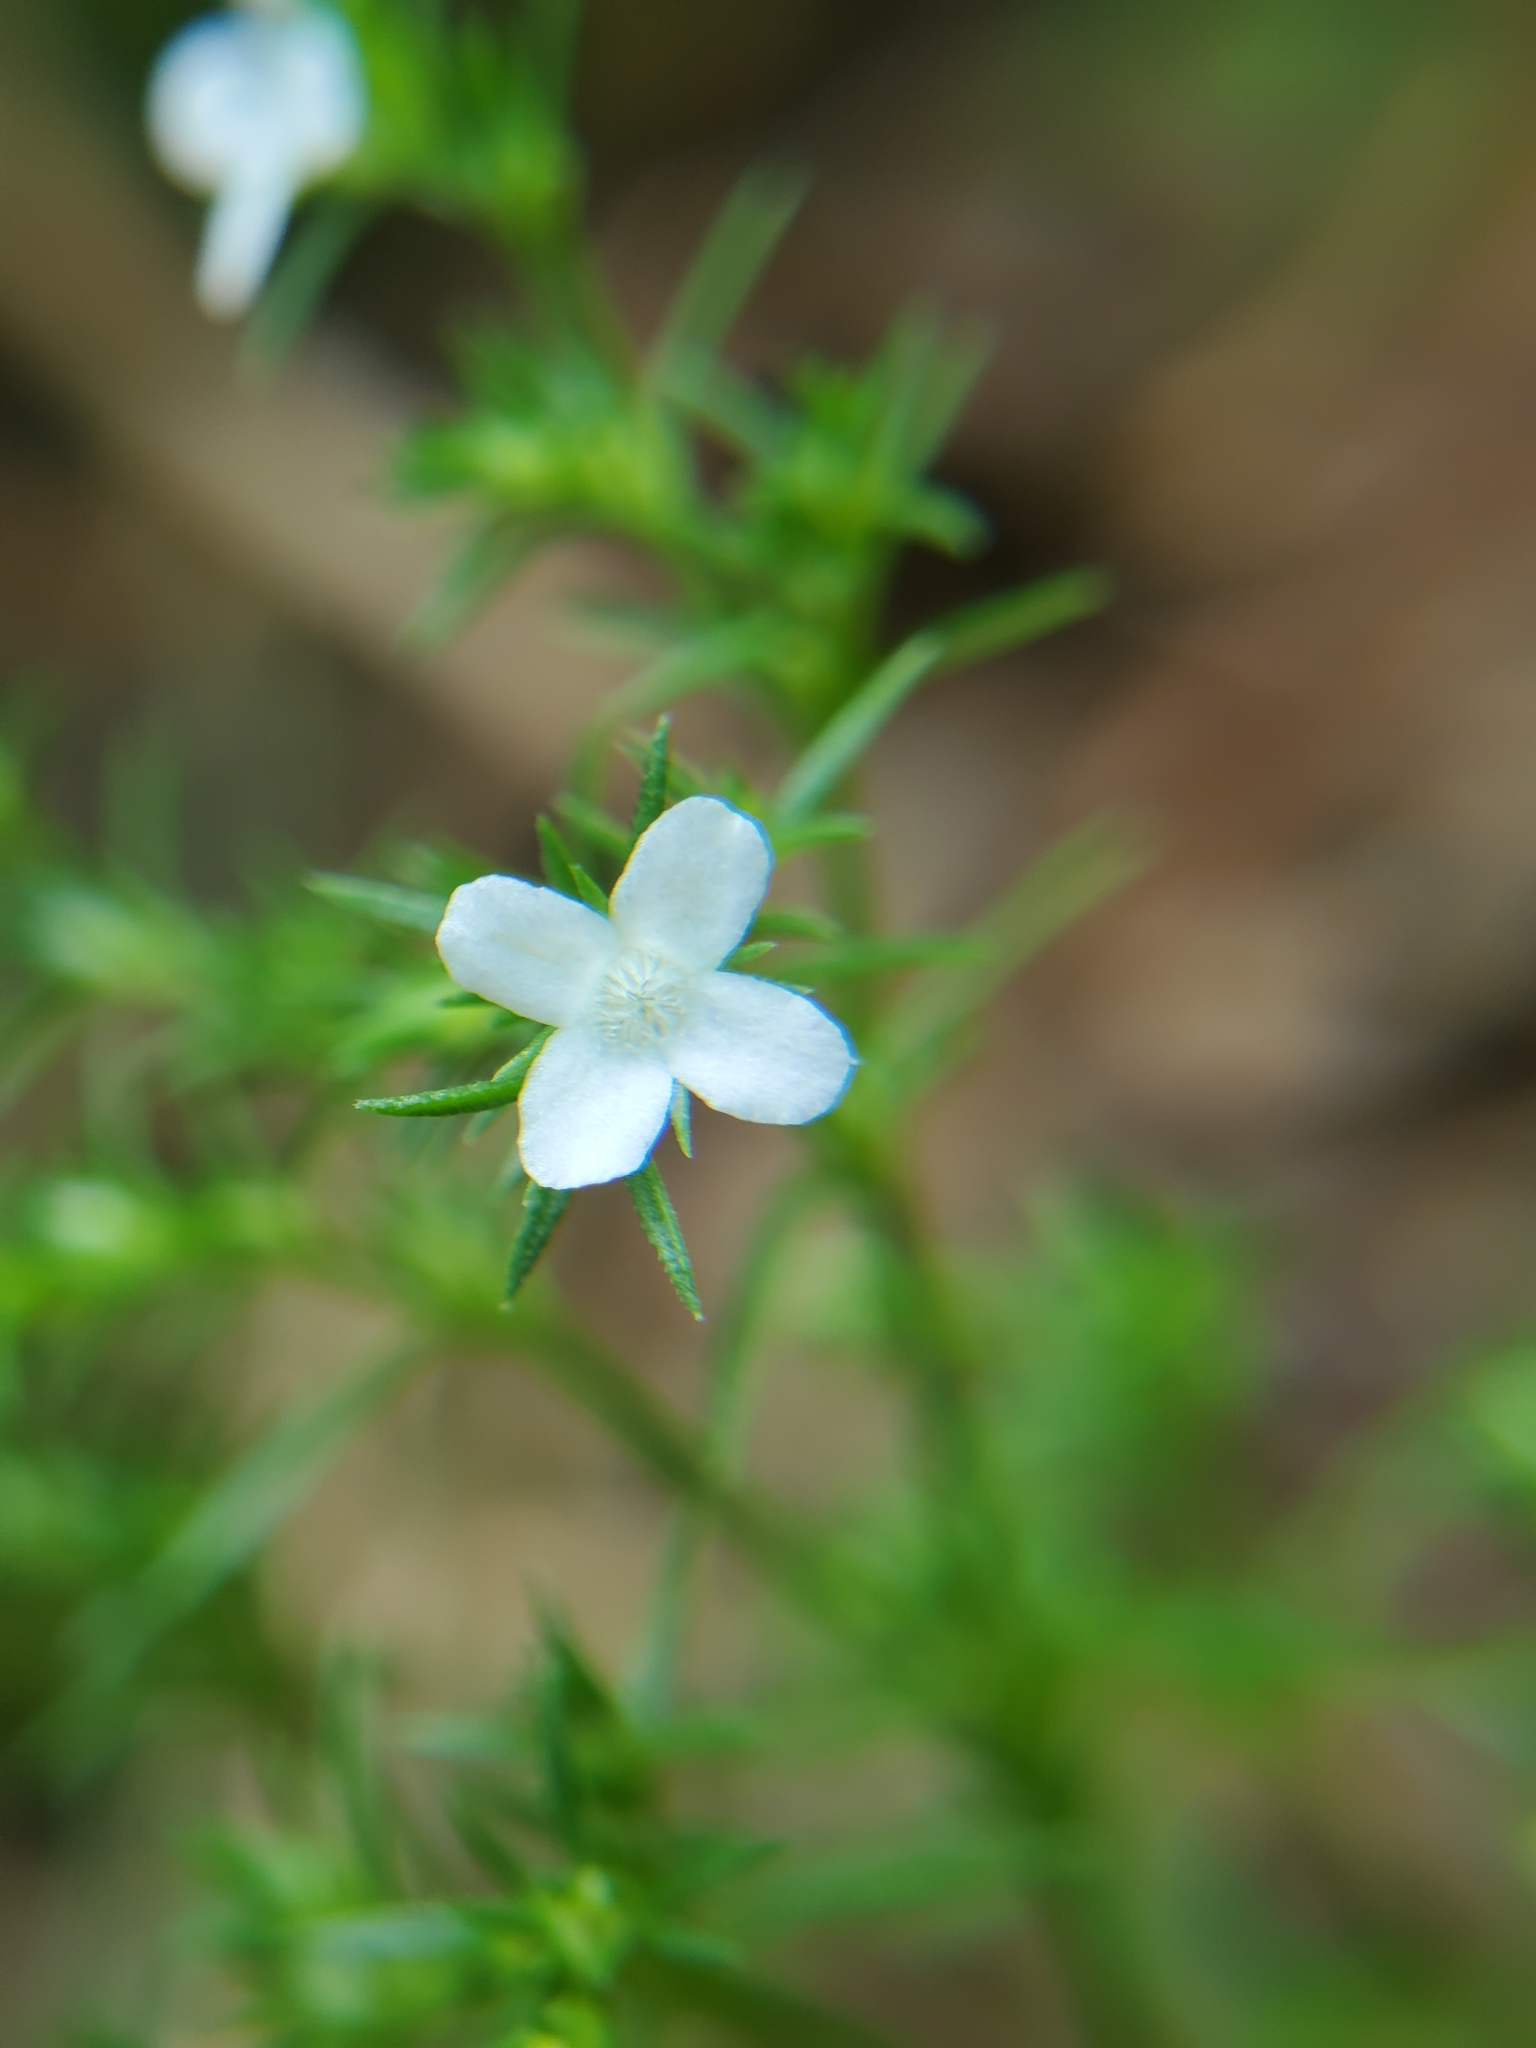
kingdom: Plantae
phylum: Tracheophyta
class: Magnoliopsida
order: Lamiales
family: Tetrachondraceae
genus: Polypremum
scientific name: Polypremum procumbens
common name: Juniper-leaf
